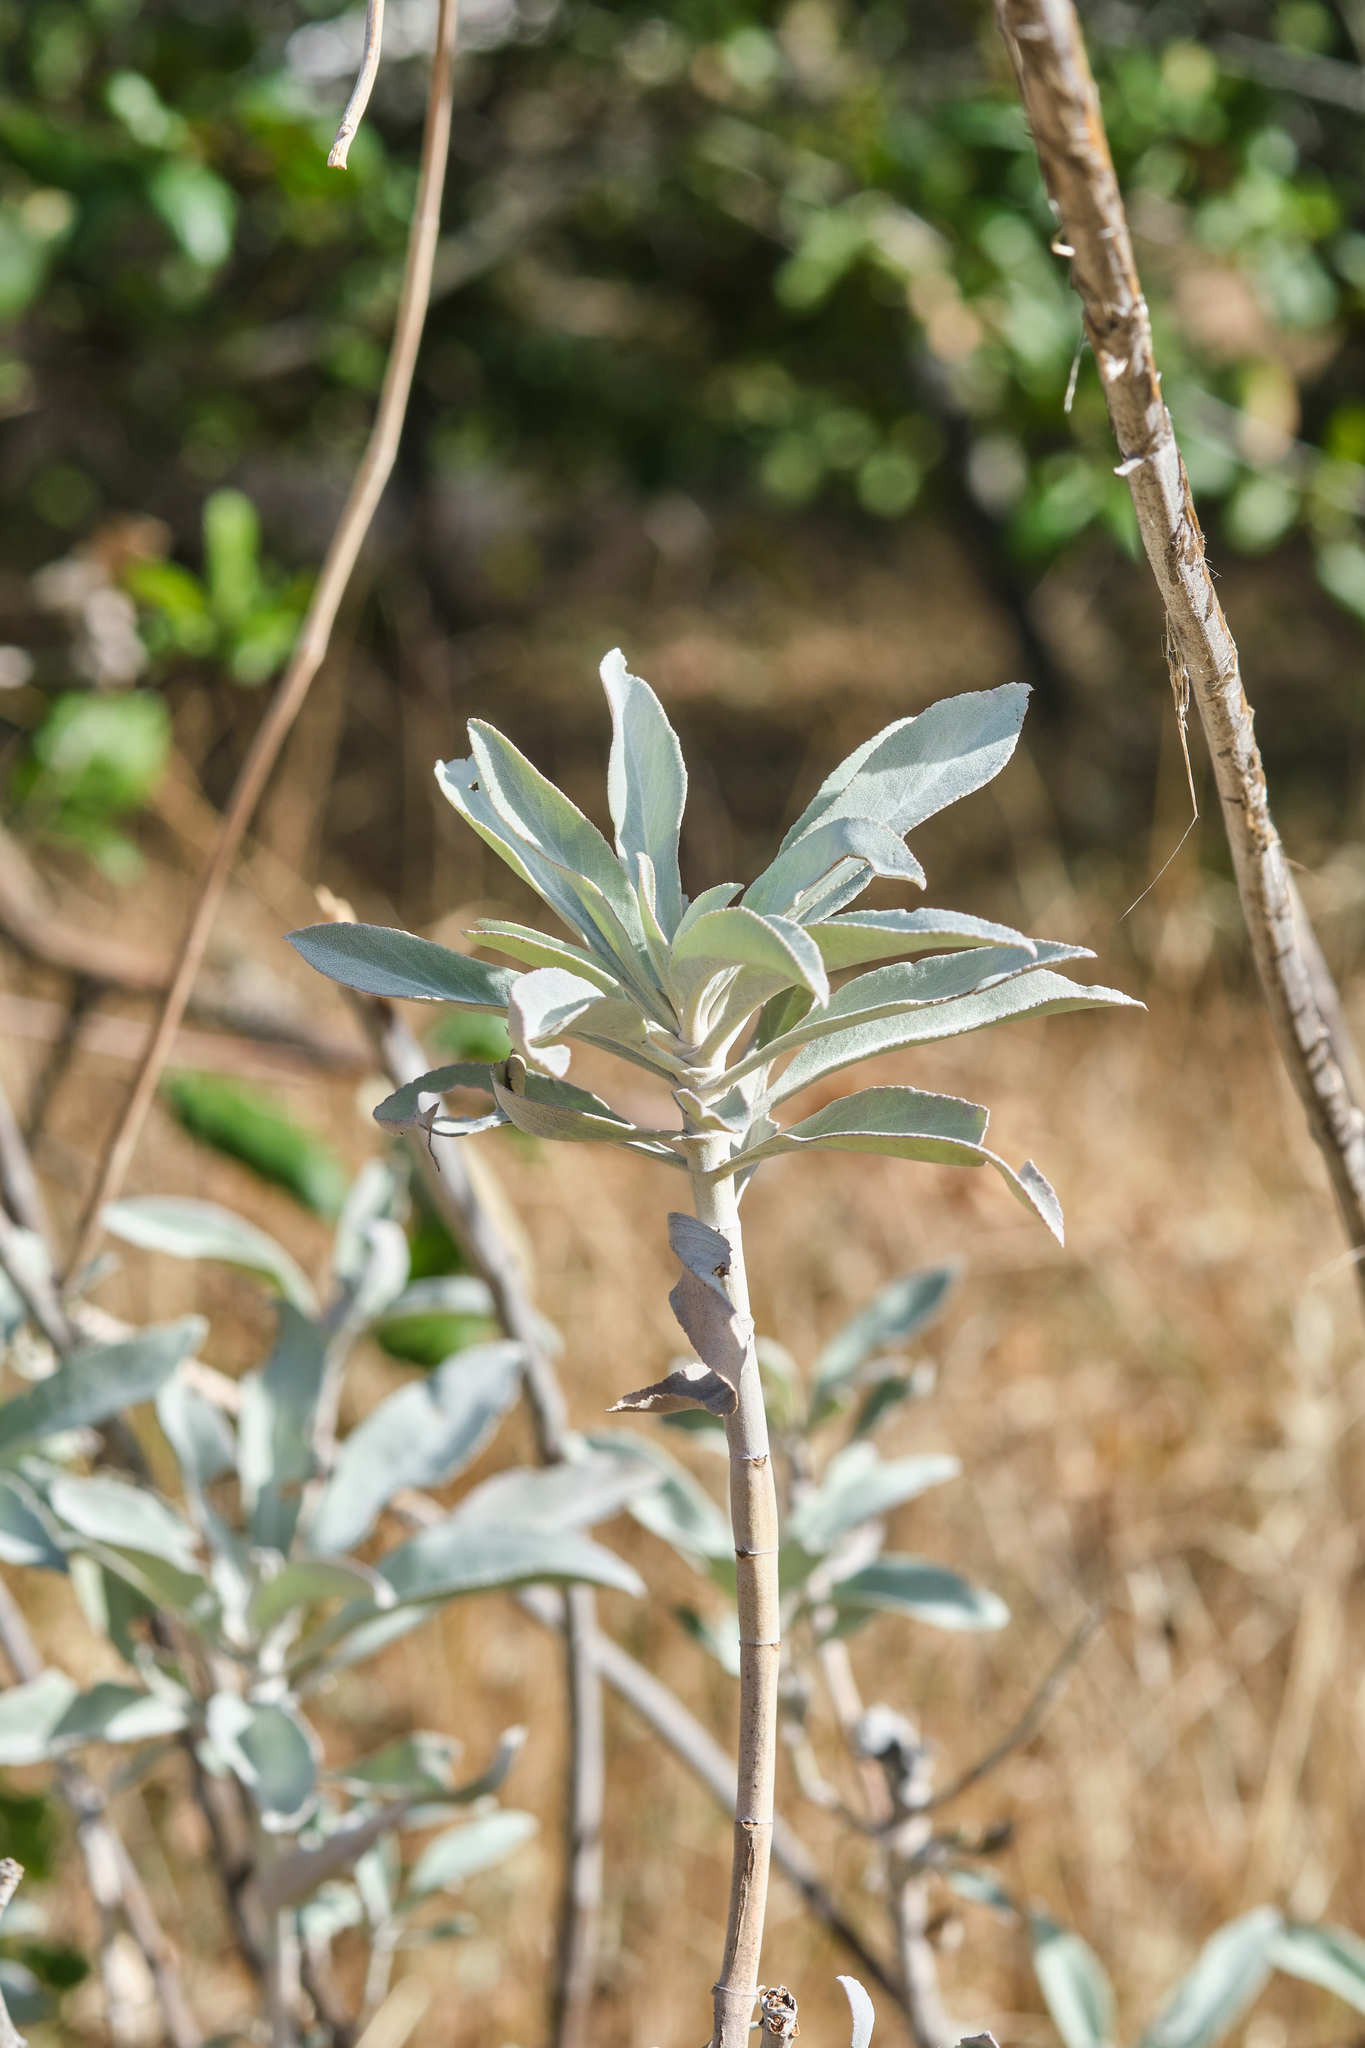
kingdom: Plantae
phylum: Tracheophyta
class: Magnoliopsida
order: Lamiales
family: Lamiaceae
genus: Salvia
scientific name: Salvia apiana
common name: White sage
